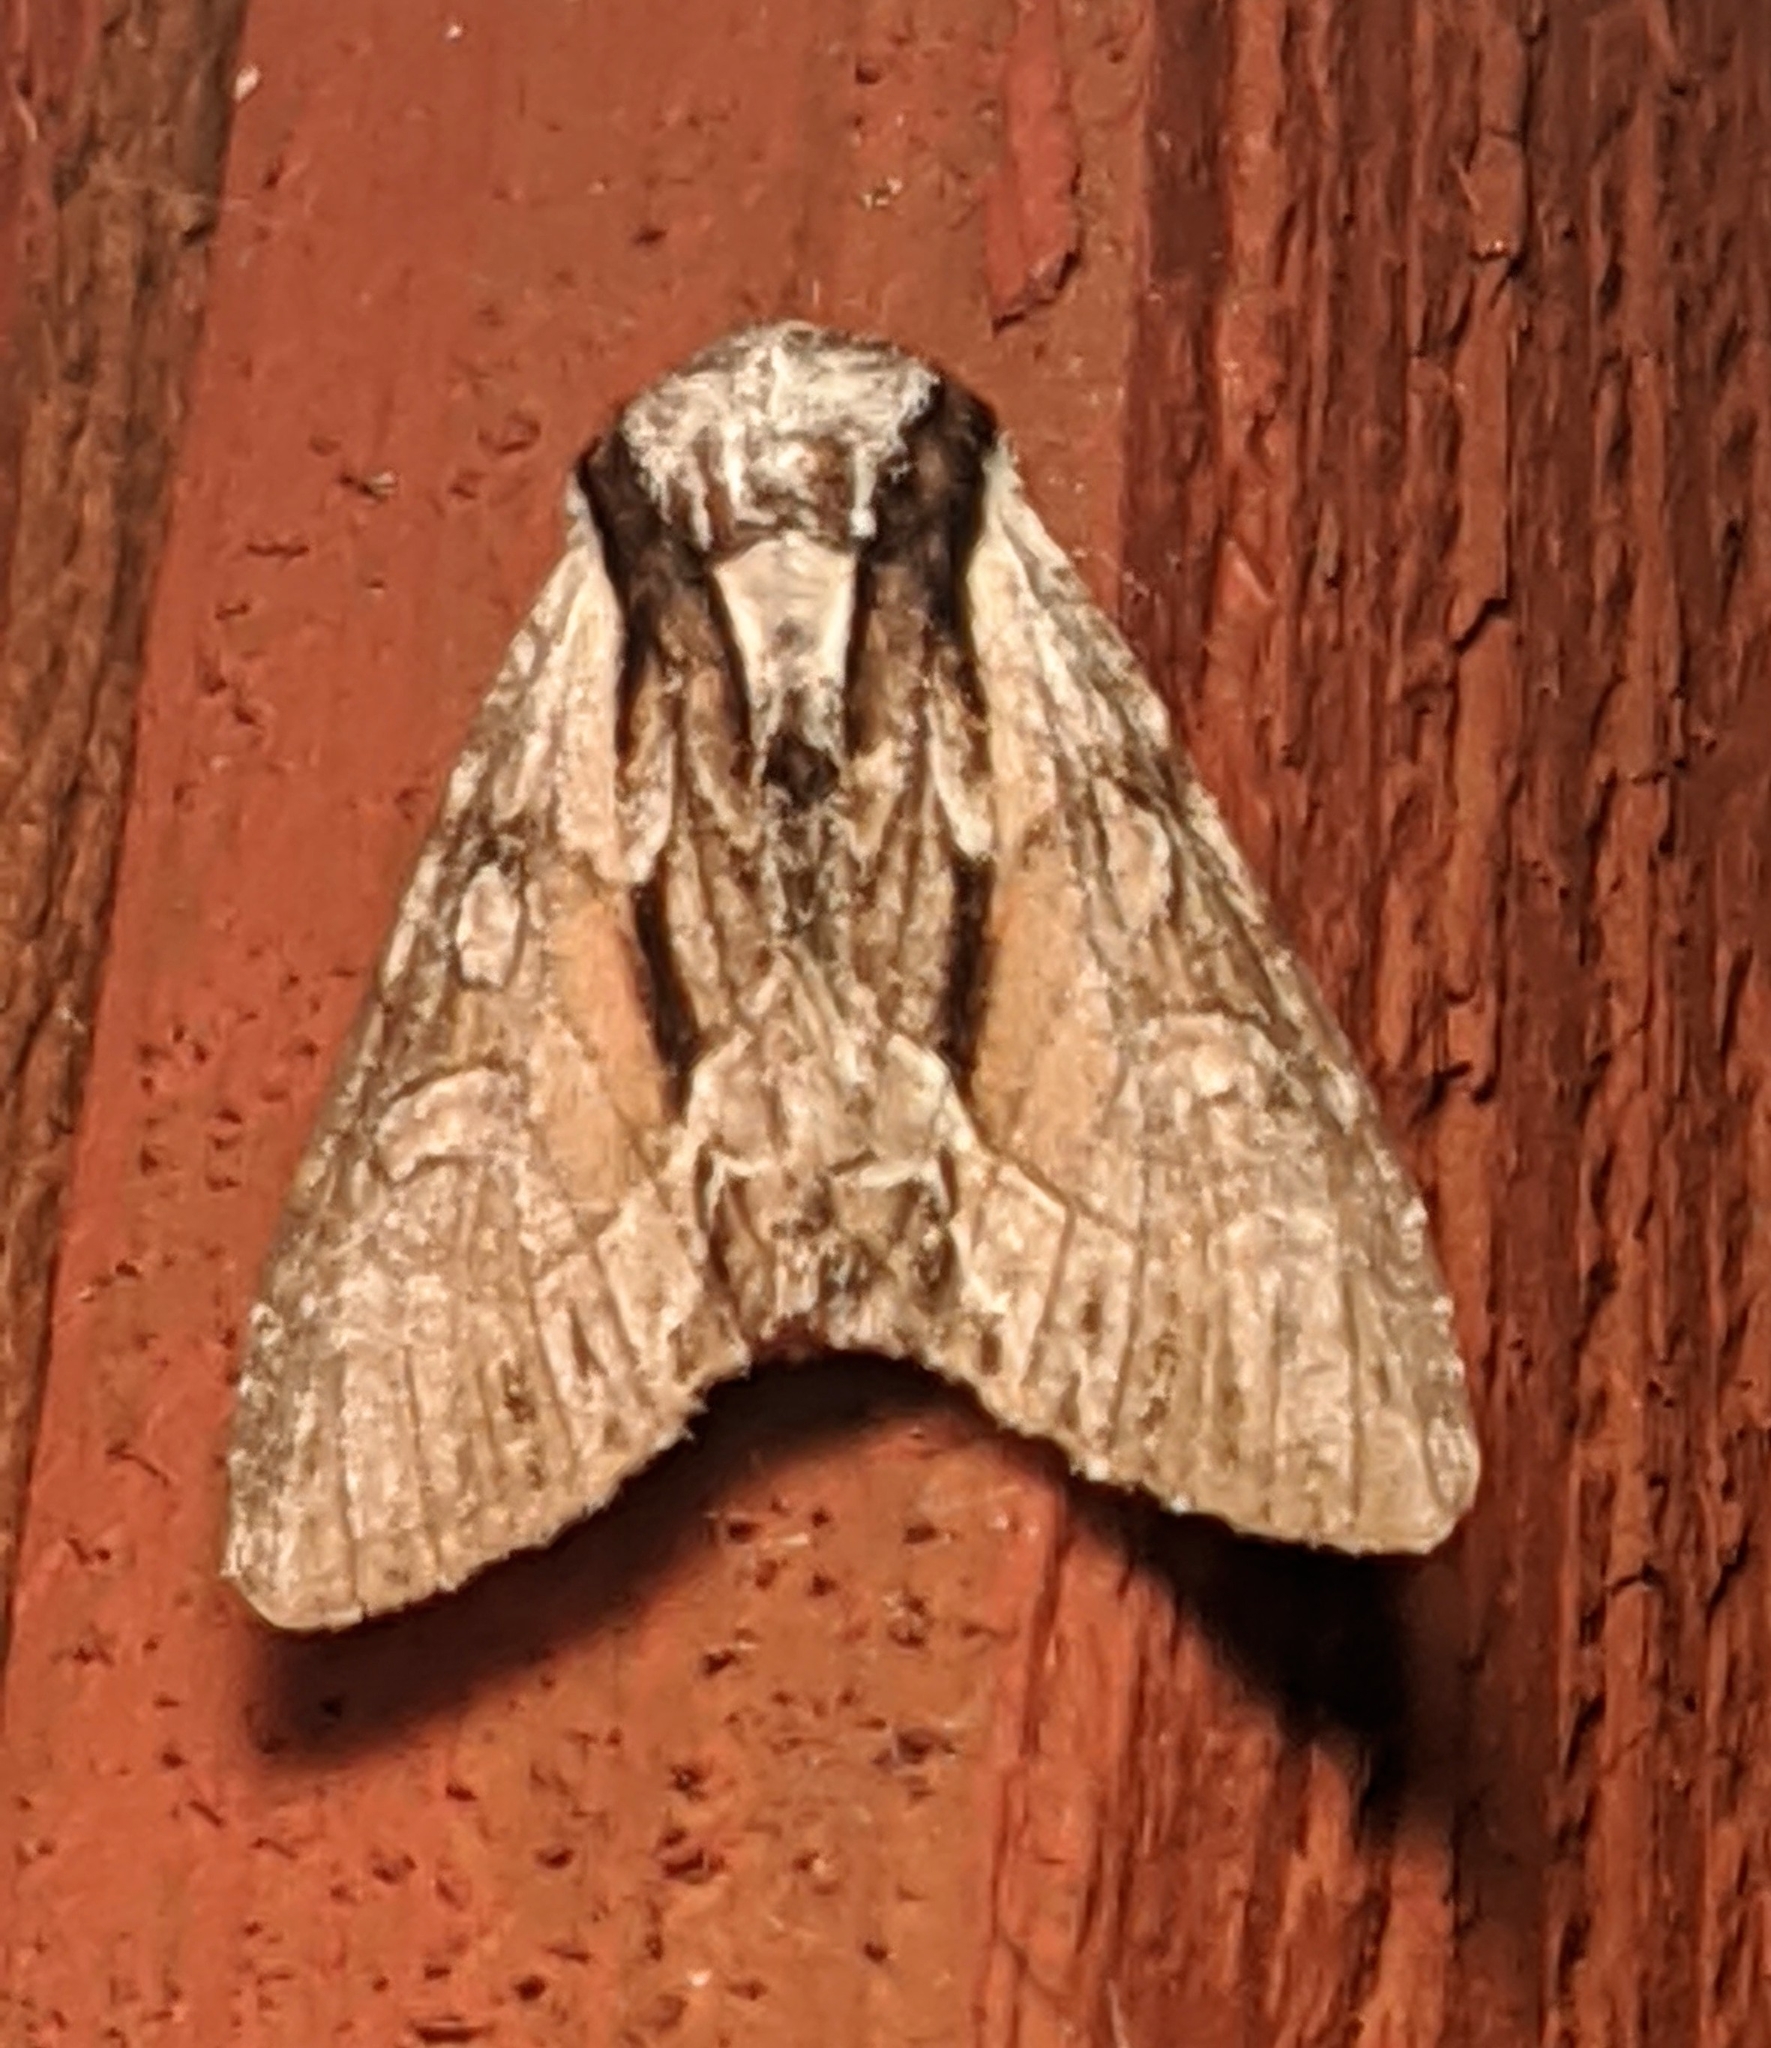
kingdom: Animalia
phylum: Arthropoda
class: Insecta
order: Lepidoptera
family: Noctuidae
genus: Hyppa
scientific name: Hyppa contrasta
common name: Summer hyppa moth
